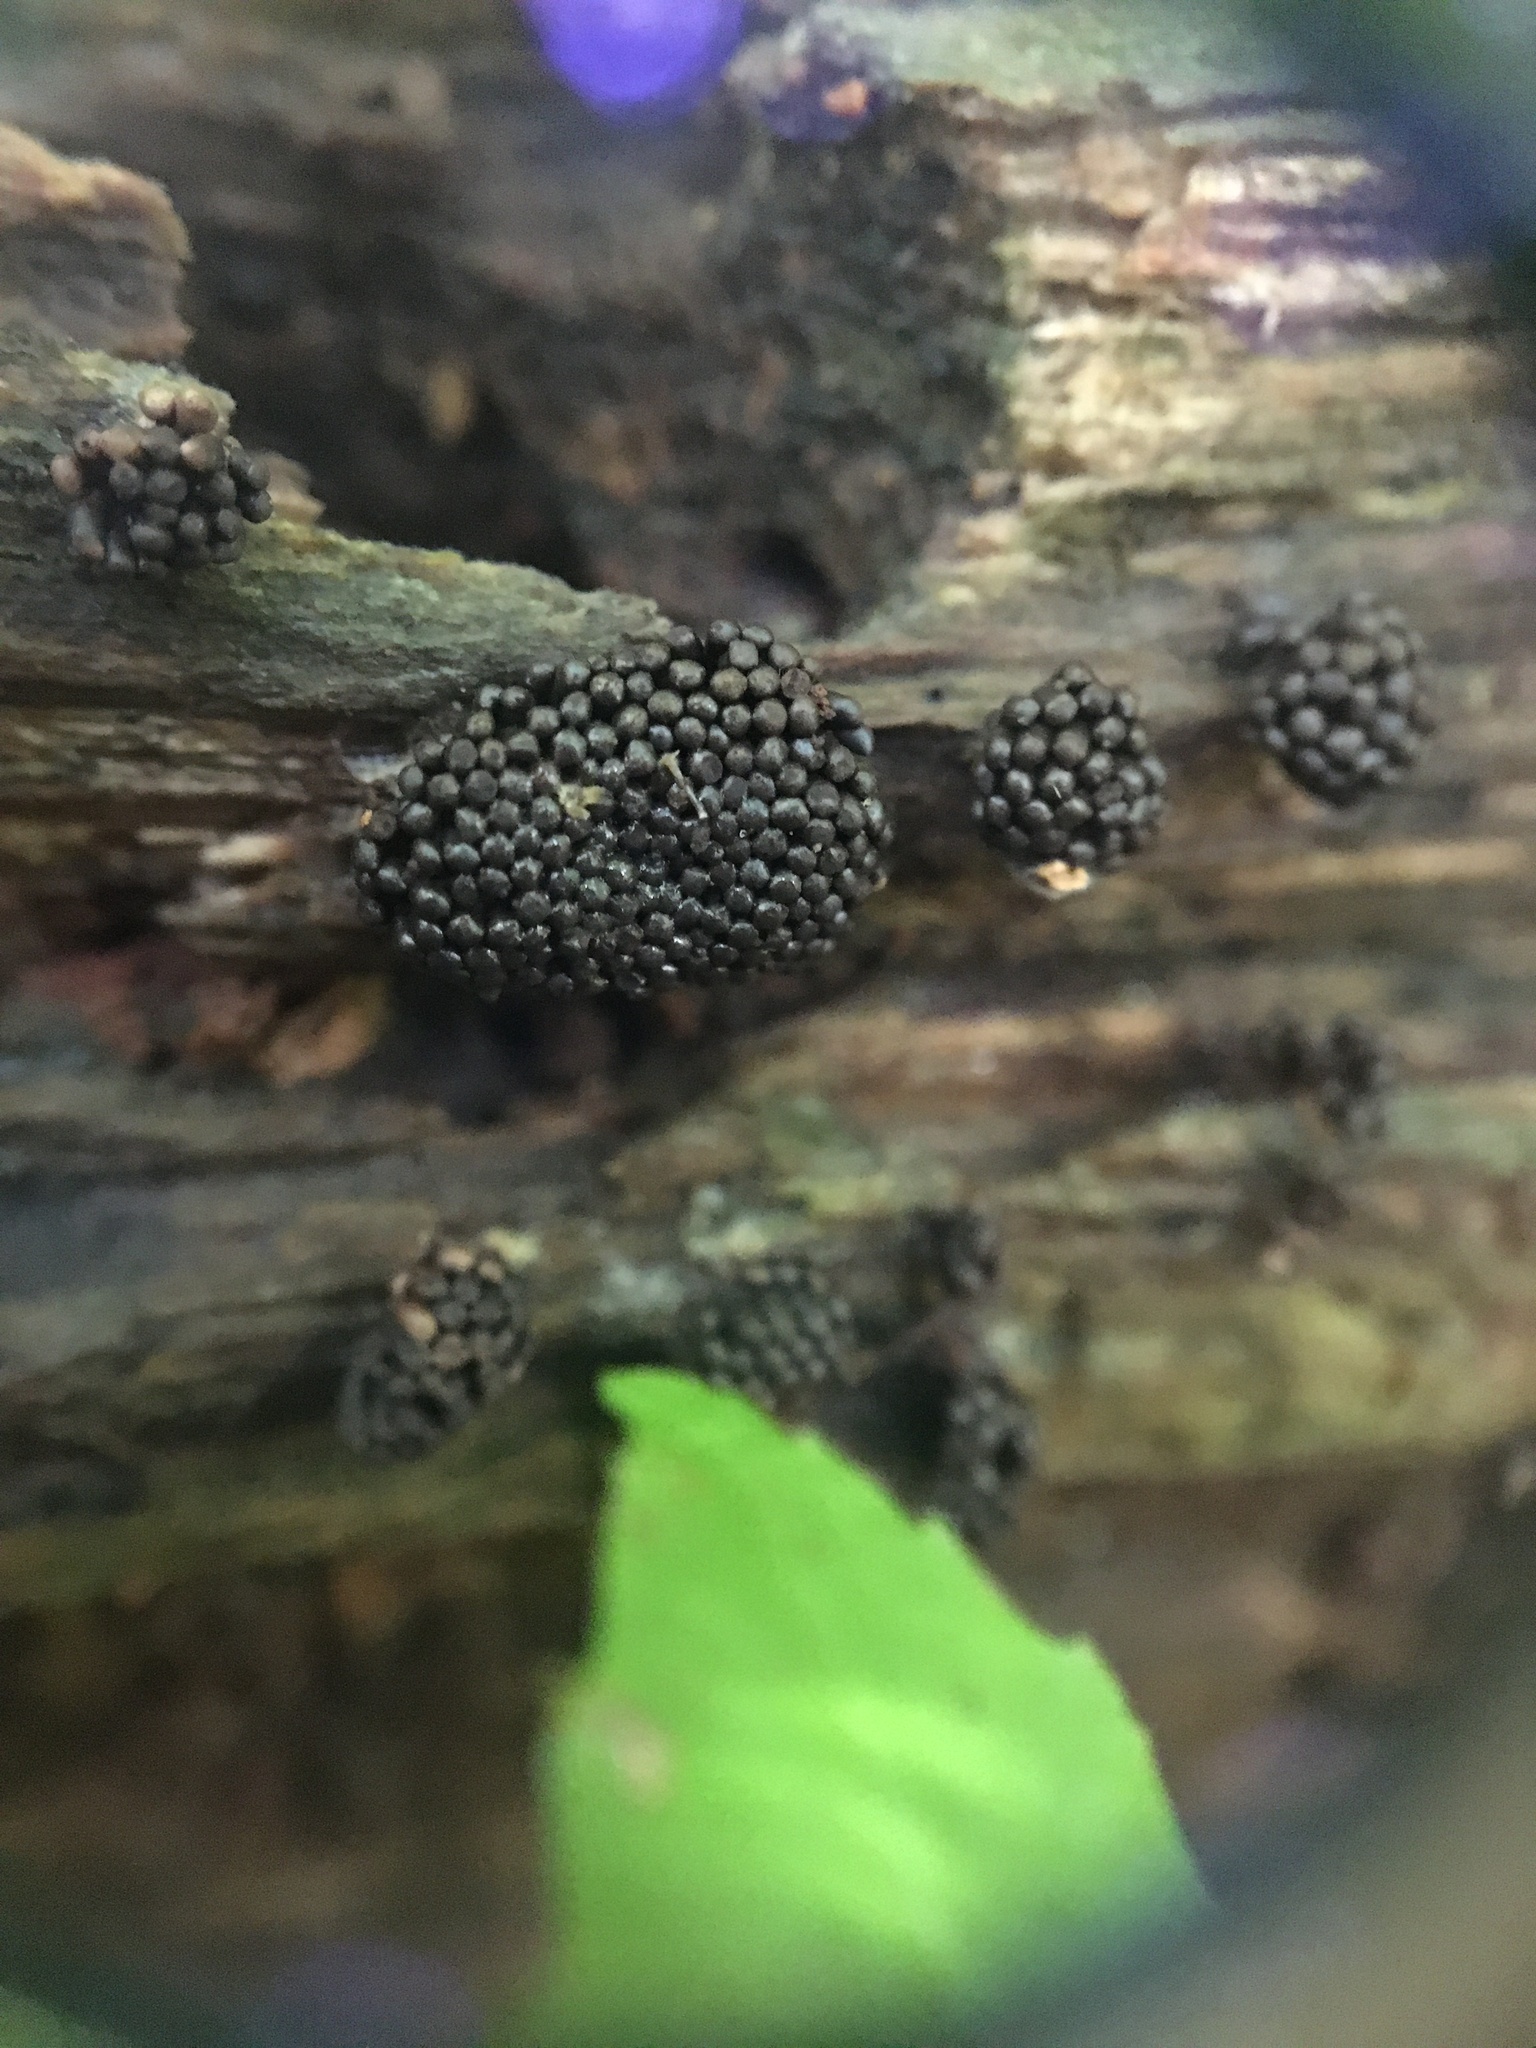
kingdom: Protozoa
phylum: Mycetozoa
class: Myxomycetes
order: Trichiales
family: Trichiaceae
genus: Metatrichia
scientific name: Metatrichia vesparia
